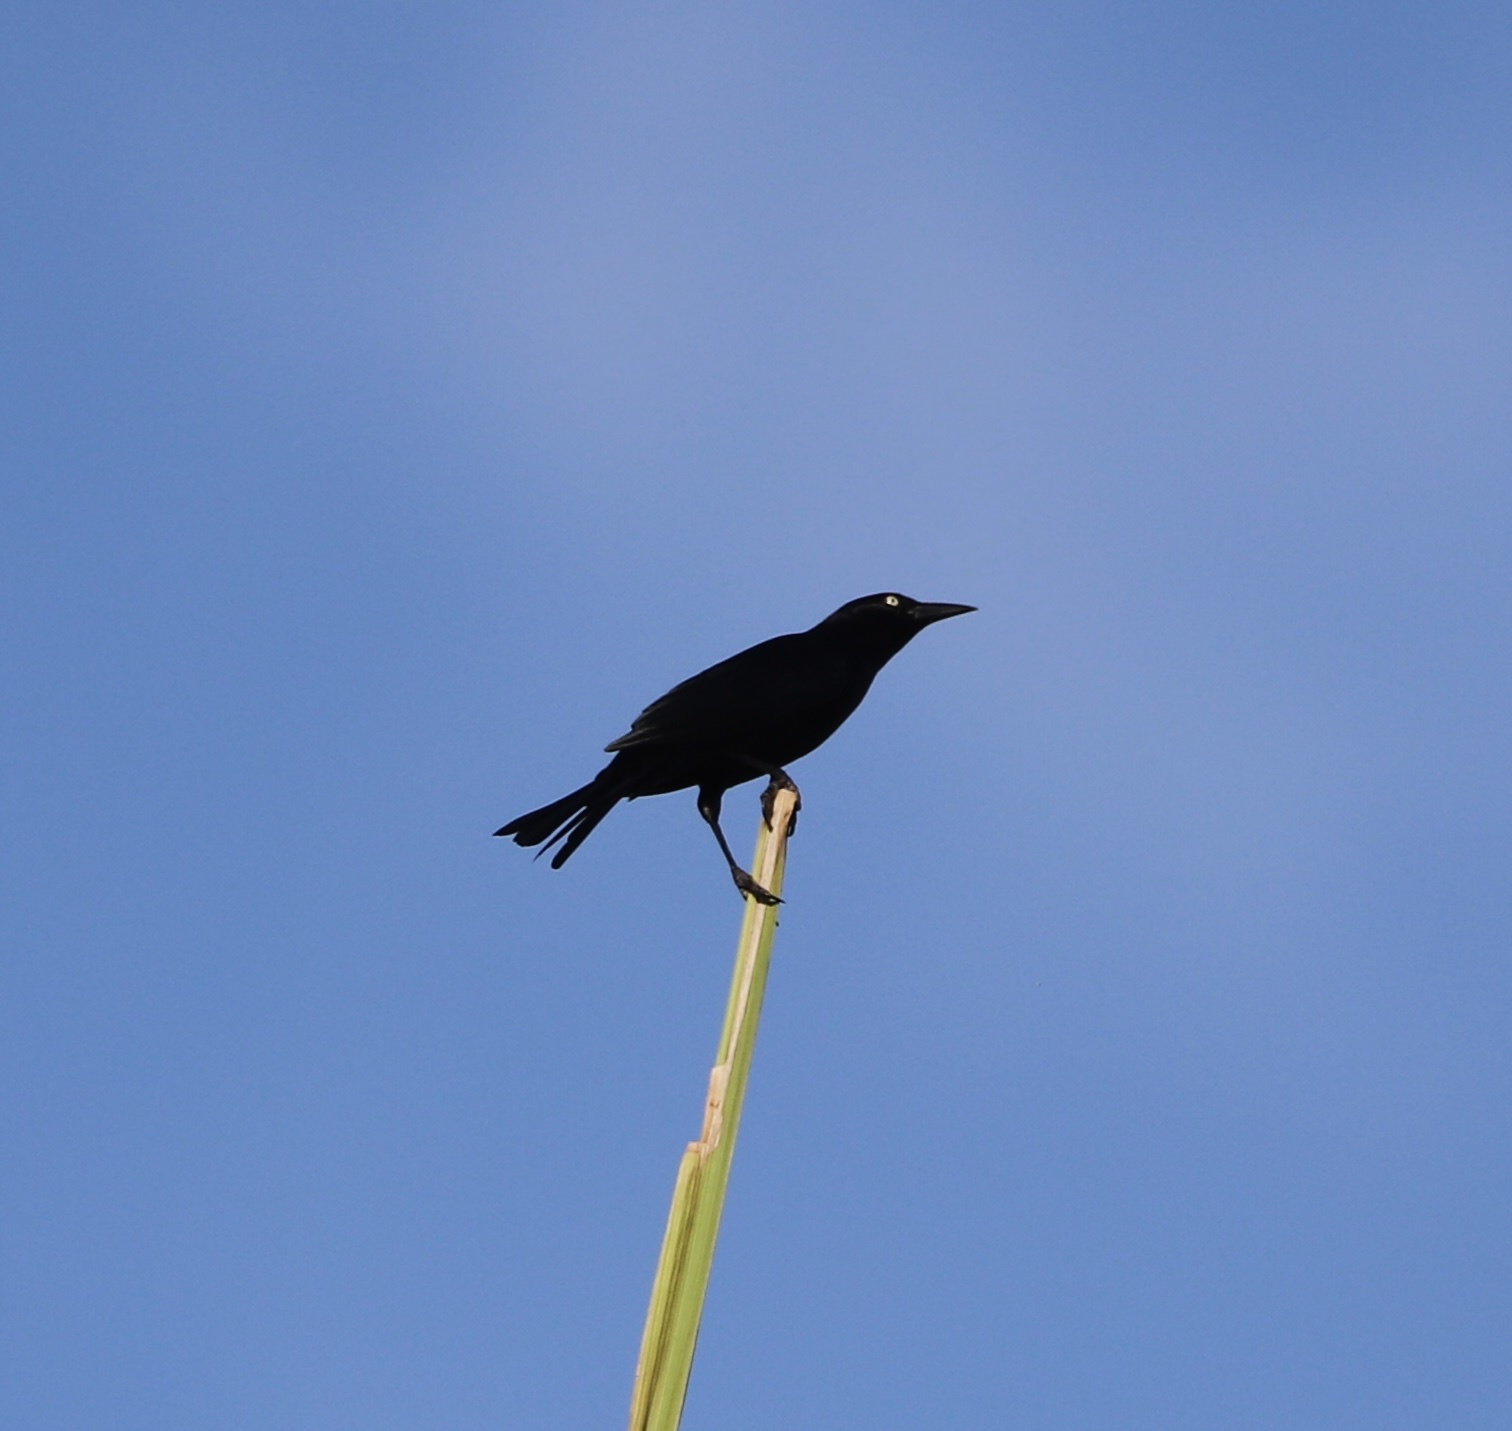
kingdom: Animalia
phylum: Chordata
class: Aves
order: Passeriformes
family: Icteridae
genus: Quiscalus
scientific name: Quiscalus niger
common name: Greater antillean grackle
